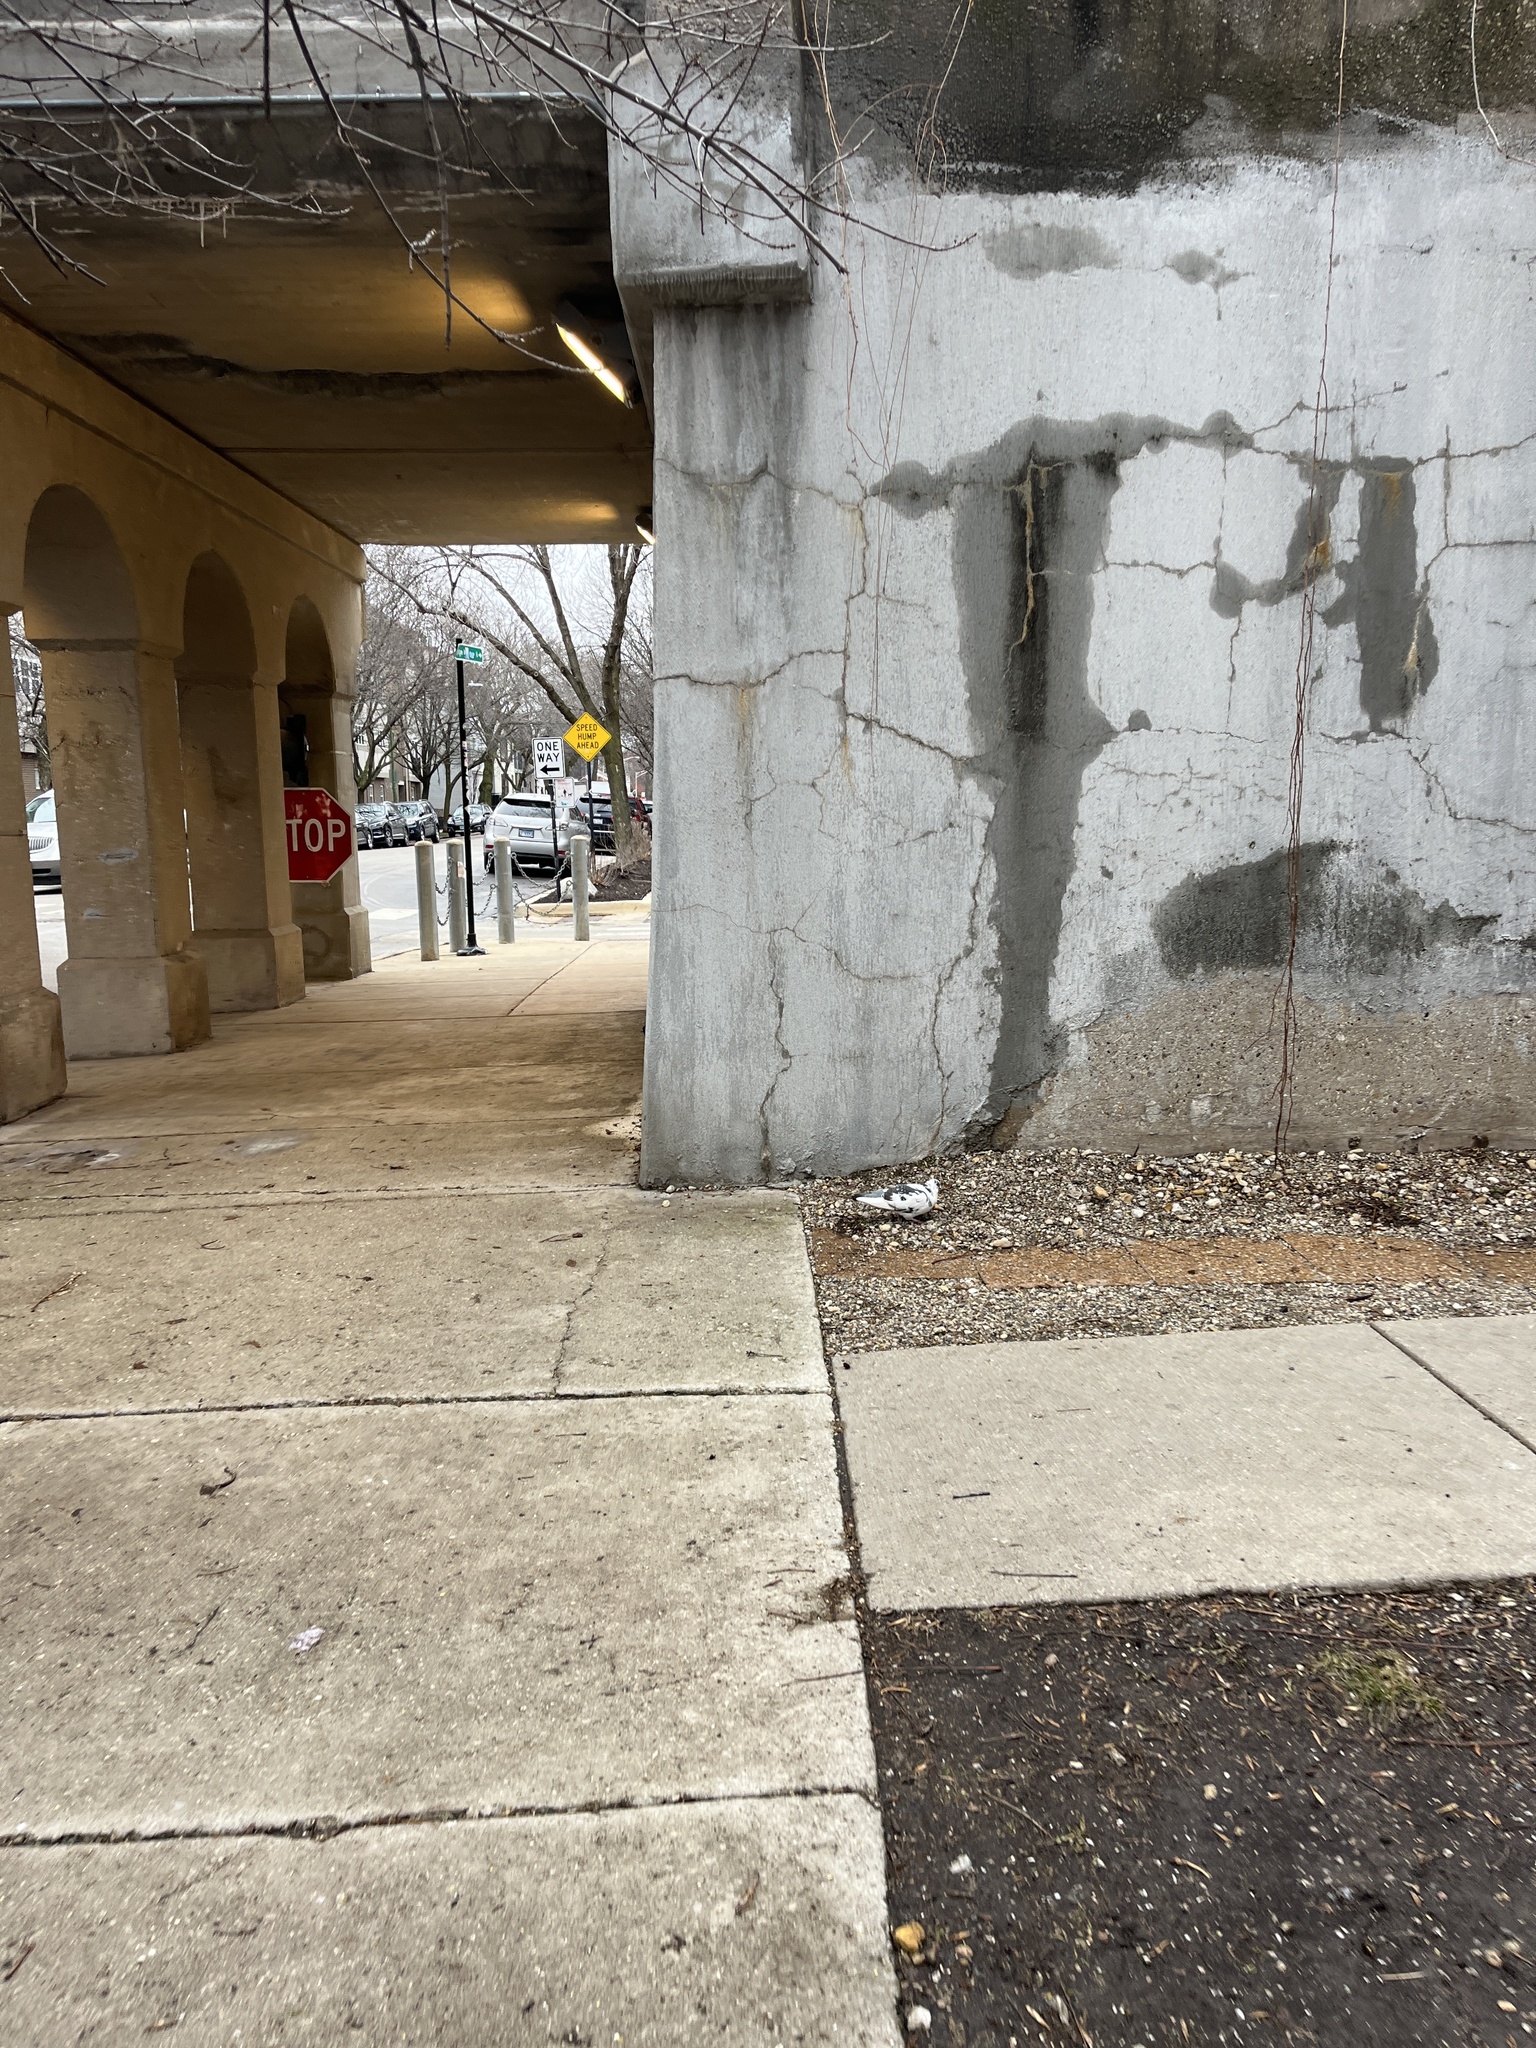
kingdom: Animalia
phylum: Chordata
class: Aves
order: Columbiformes
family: Columbidae
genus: Columba
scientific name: Columba livia
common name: Rock pigeon
